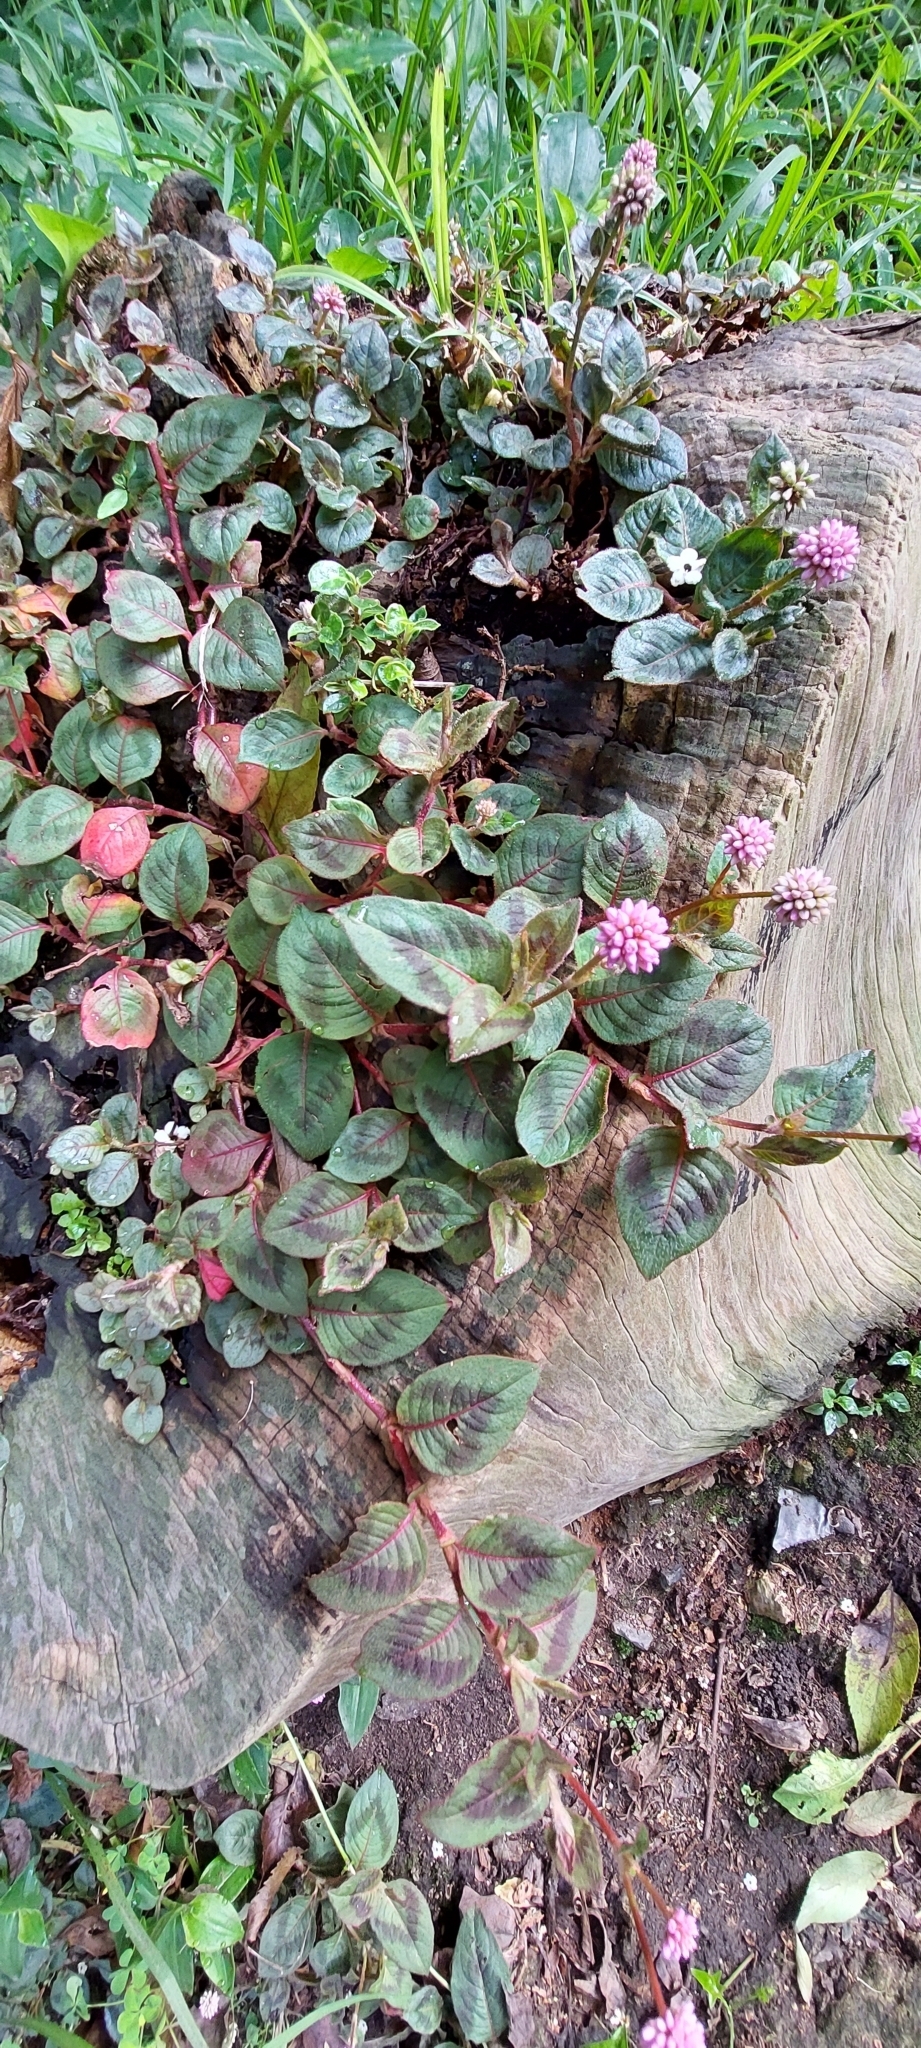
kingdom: Plantae
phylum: Tracheophyta
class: Magnoliopsida
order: Caryophyllales
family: Polygonaceae
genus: Persicaria
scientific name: Persicaria capitata
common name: Pinkhead smartweed
